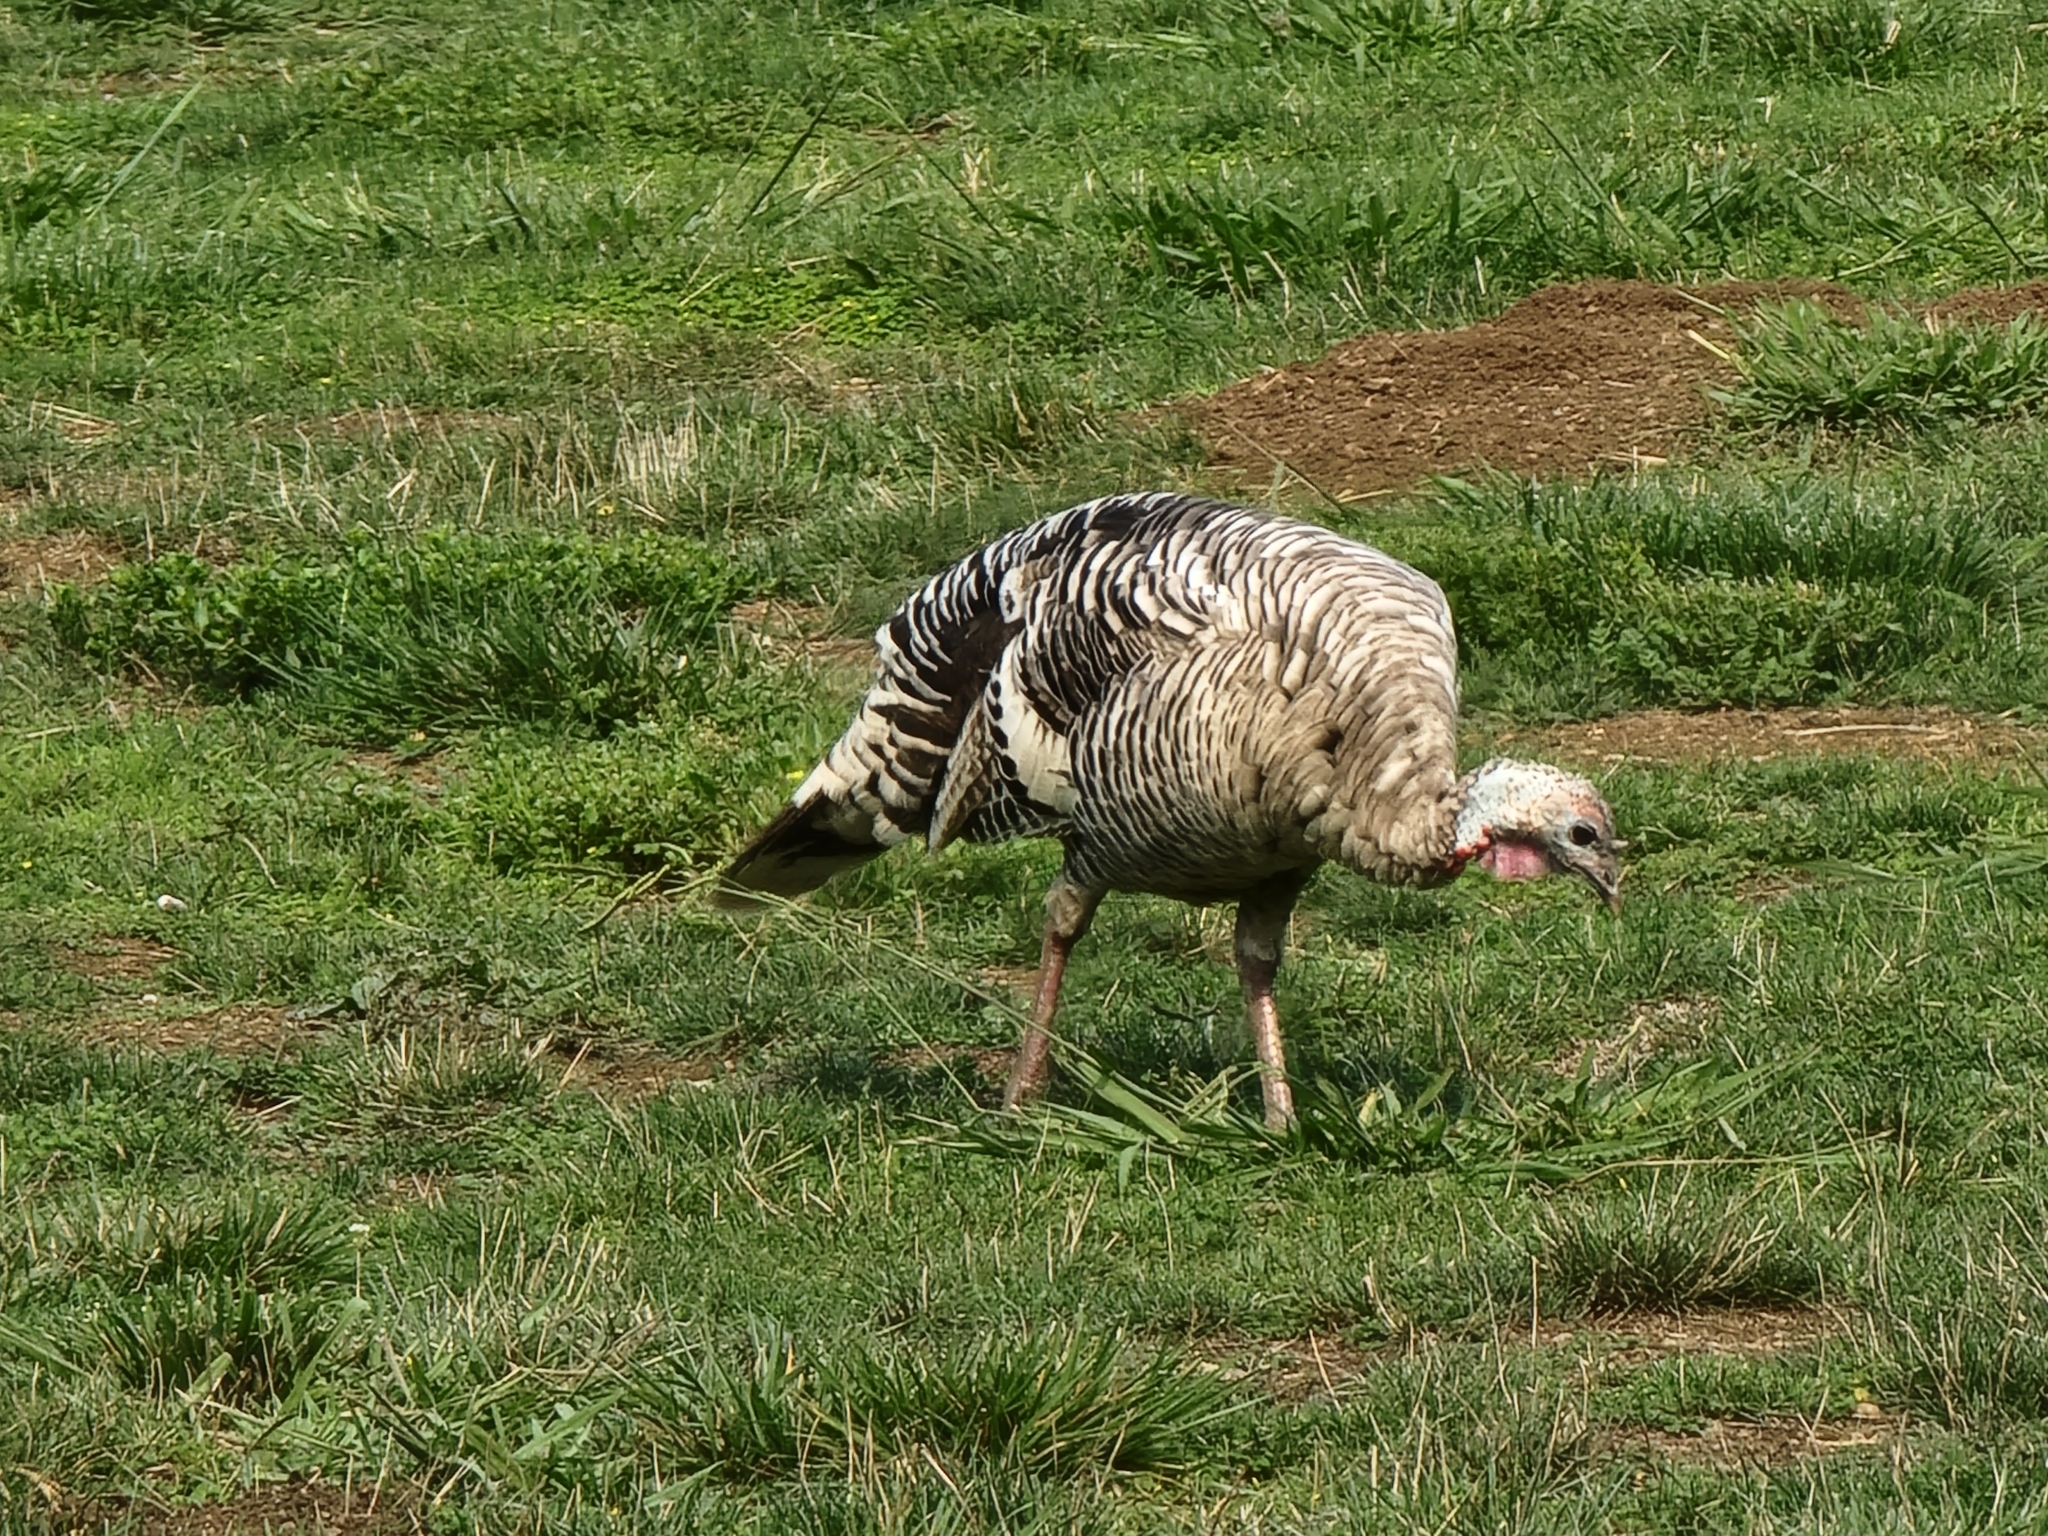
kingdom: Animalia
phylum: Chordata
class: Aves
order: Galliformes
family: Phasianidae
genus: Meleagris
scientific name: Meleagris gallopavo
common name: Wild turkey
